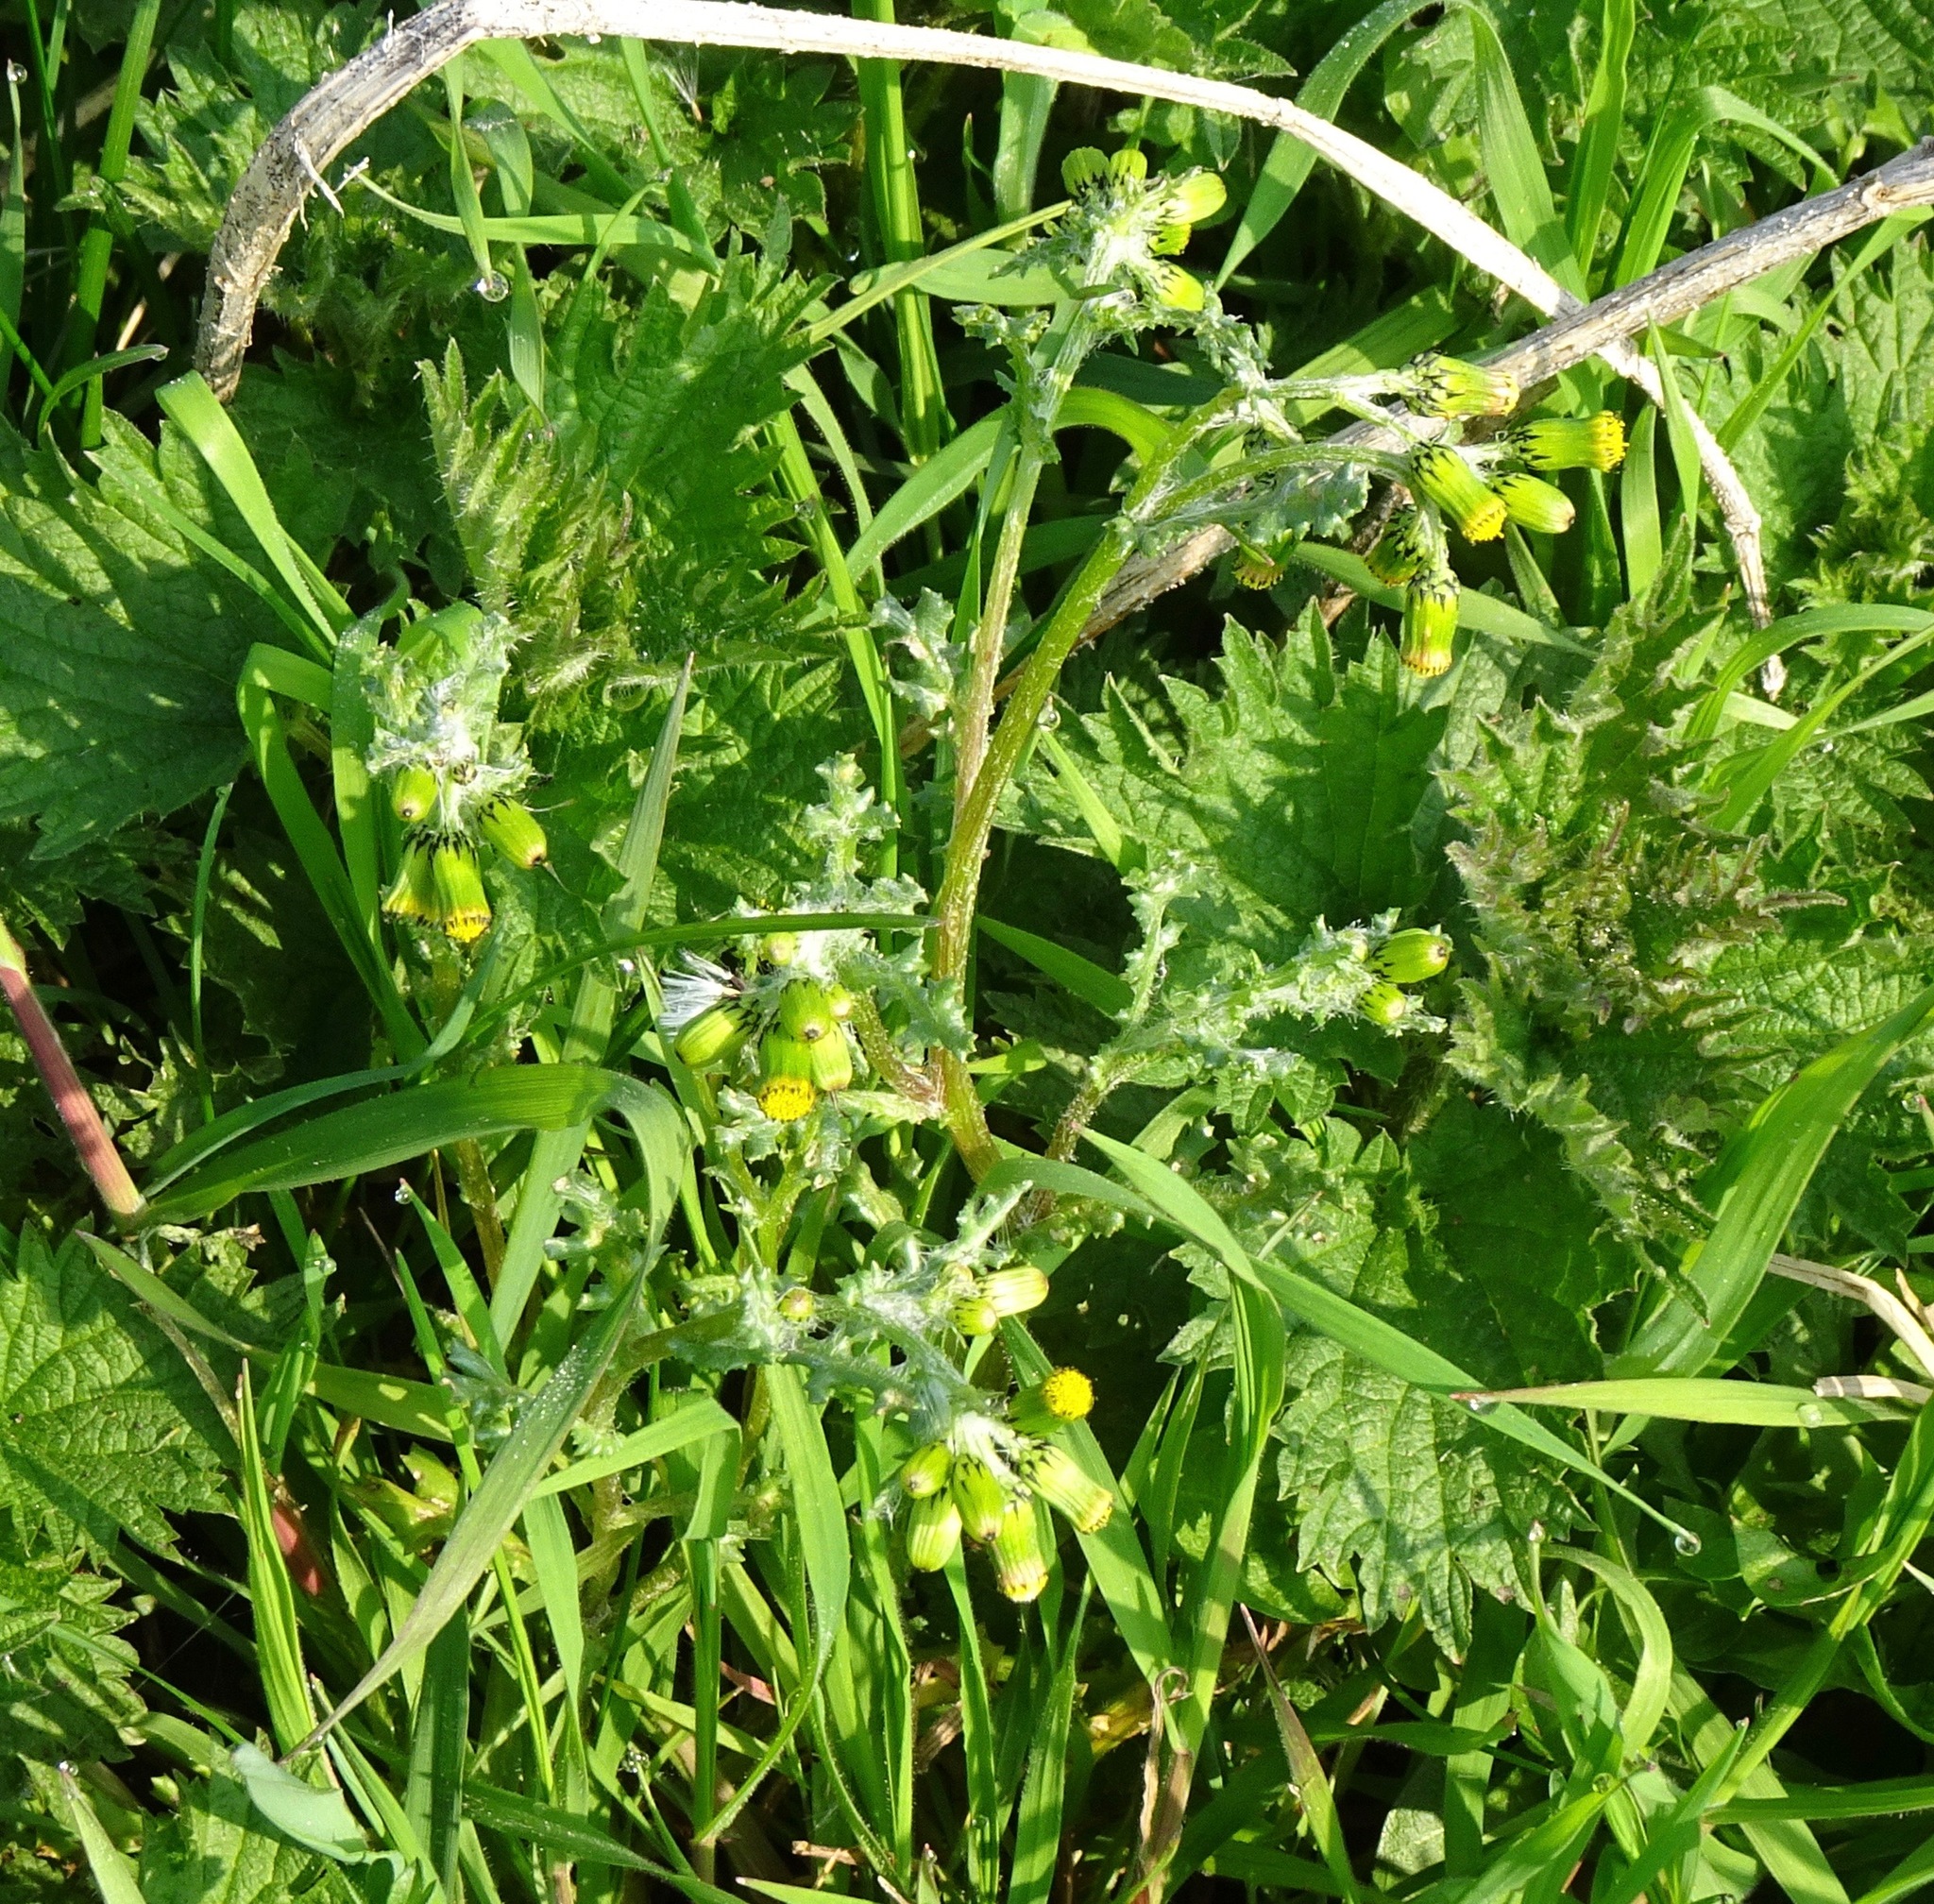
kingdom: Plantae
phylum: Tracheophyta
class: Magnoliopsida
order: Asterales
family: Asteraceae
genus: Senecio
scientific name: Senecio vulgaris
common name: Old-man-in-the-spring
